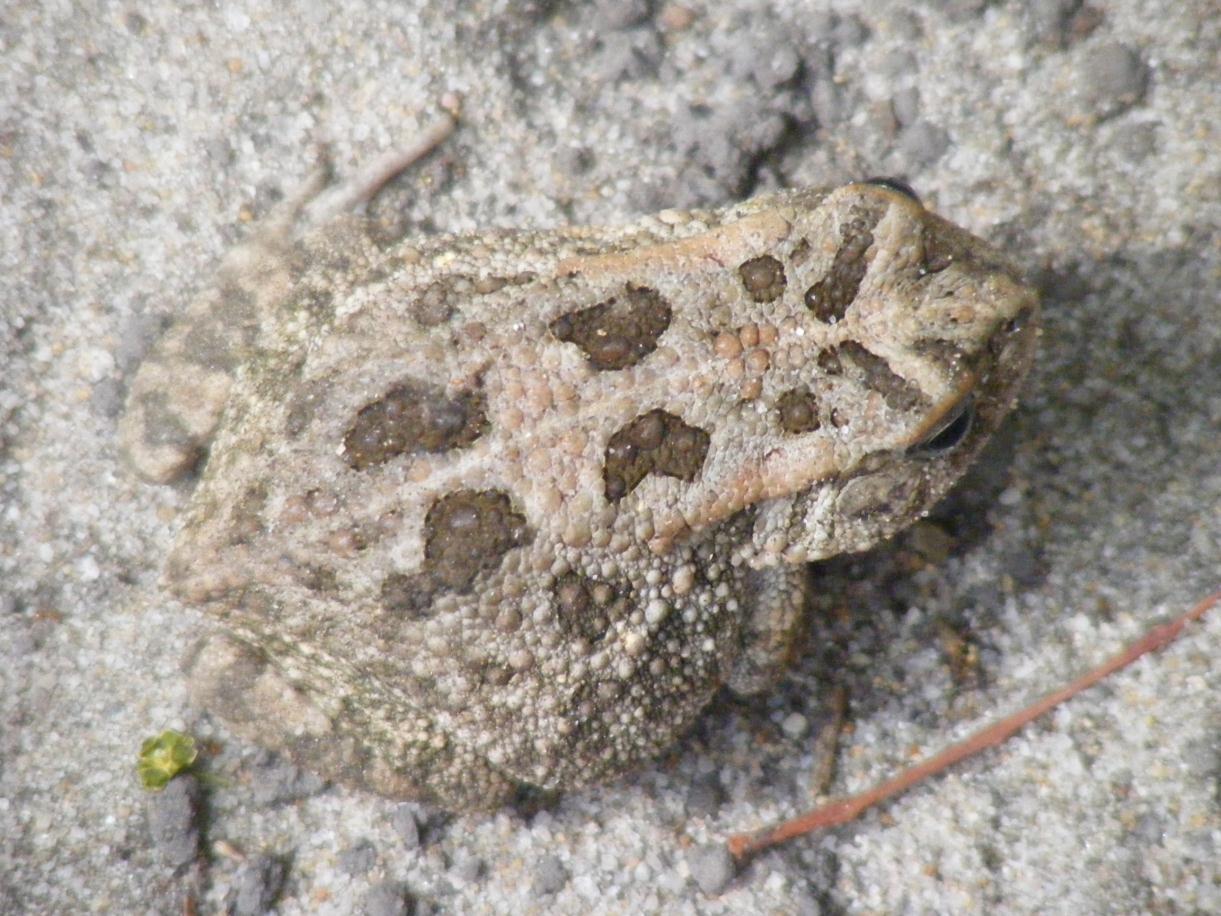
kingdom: Animalia
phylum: Chordata
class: Amphibia
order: Anura
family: Bufonidae
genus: Sclerophrys
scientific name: Sclerophrys gutturalis
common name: African common toad
